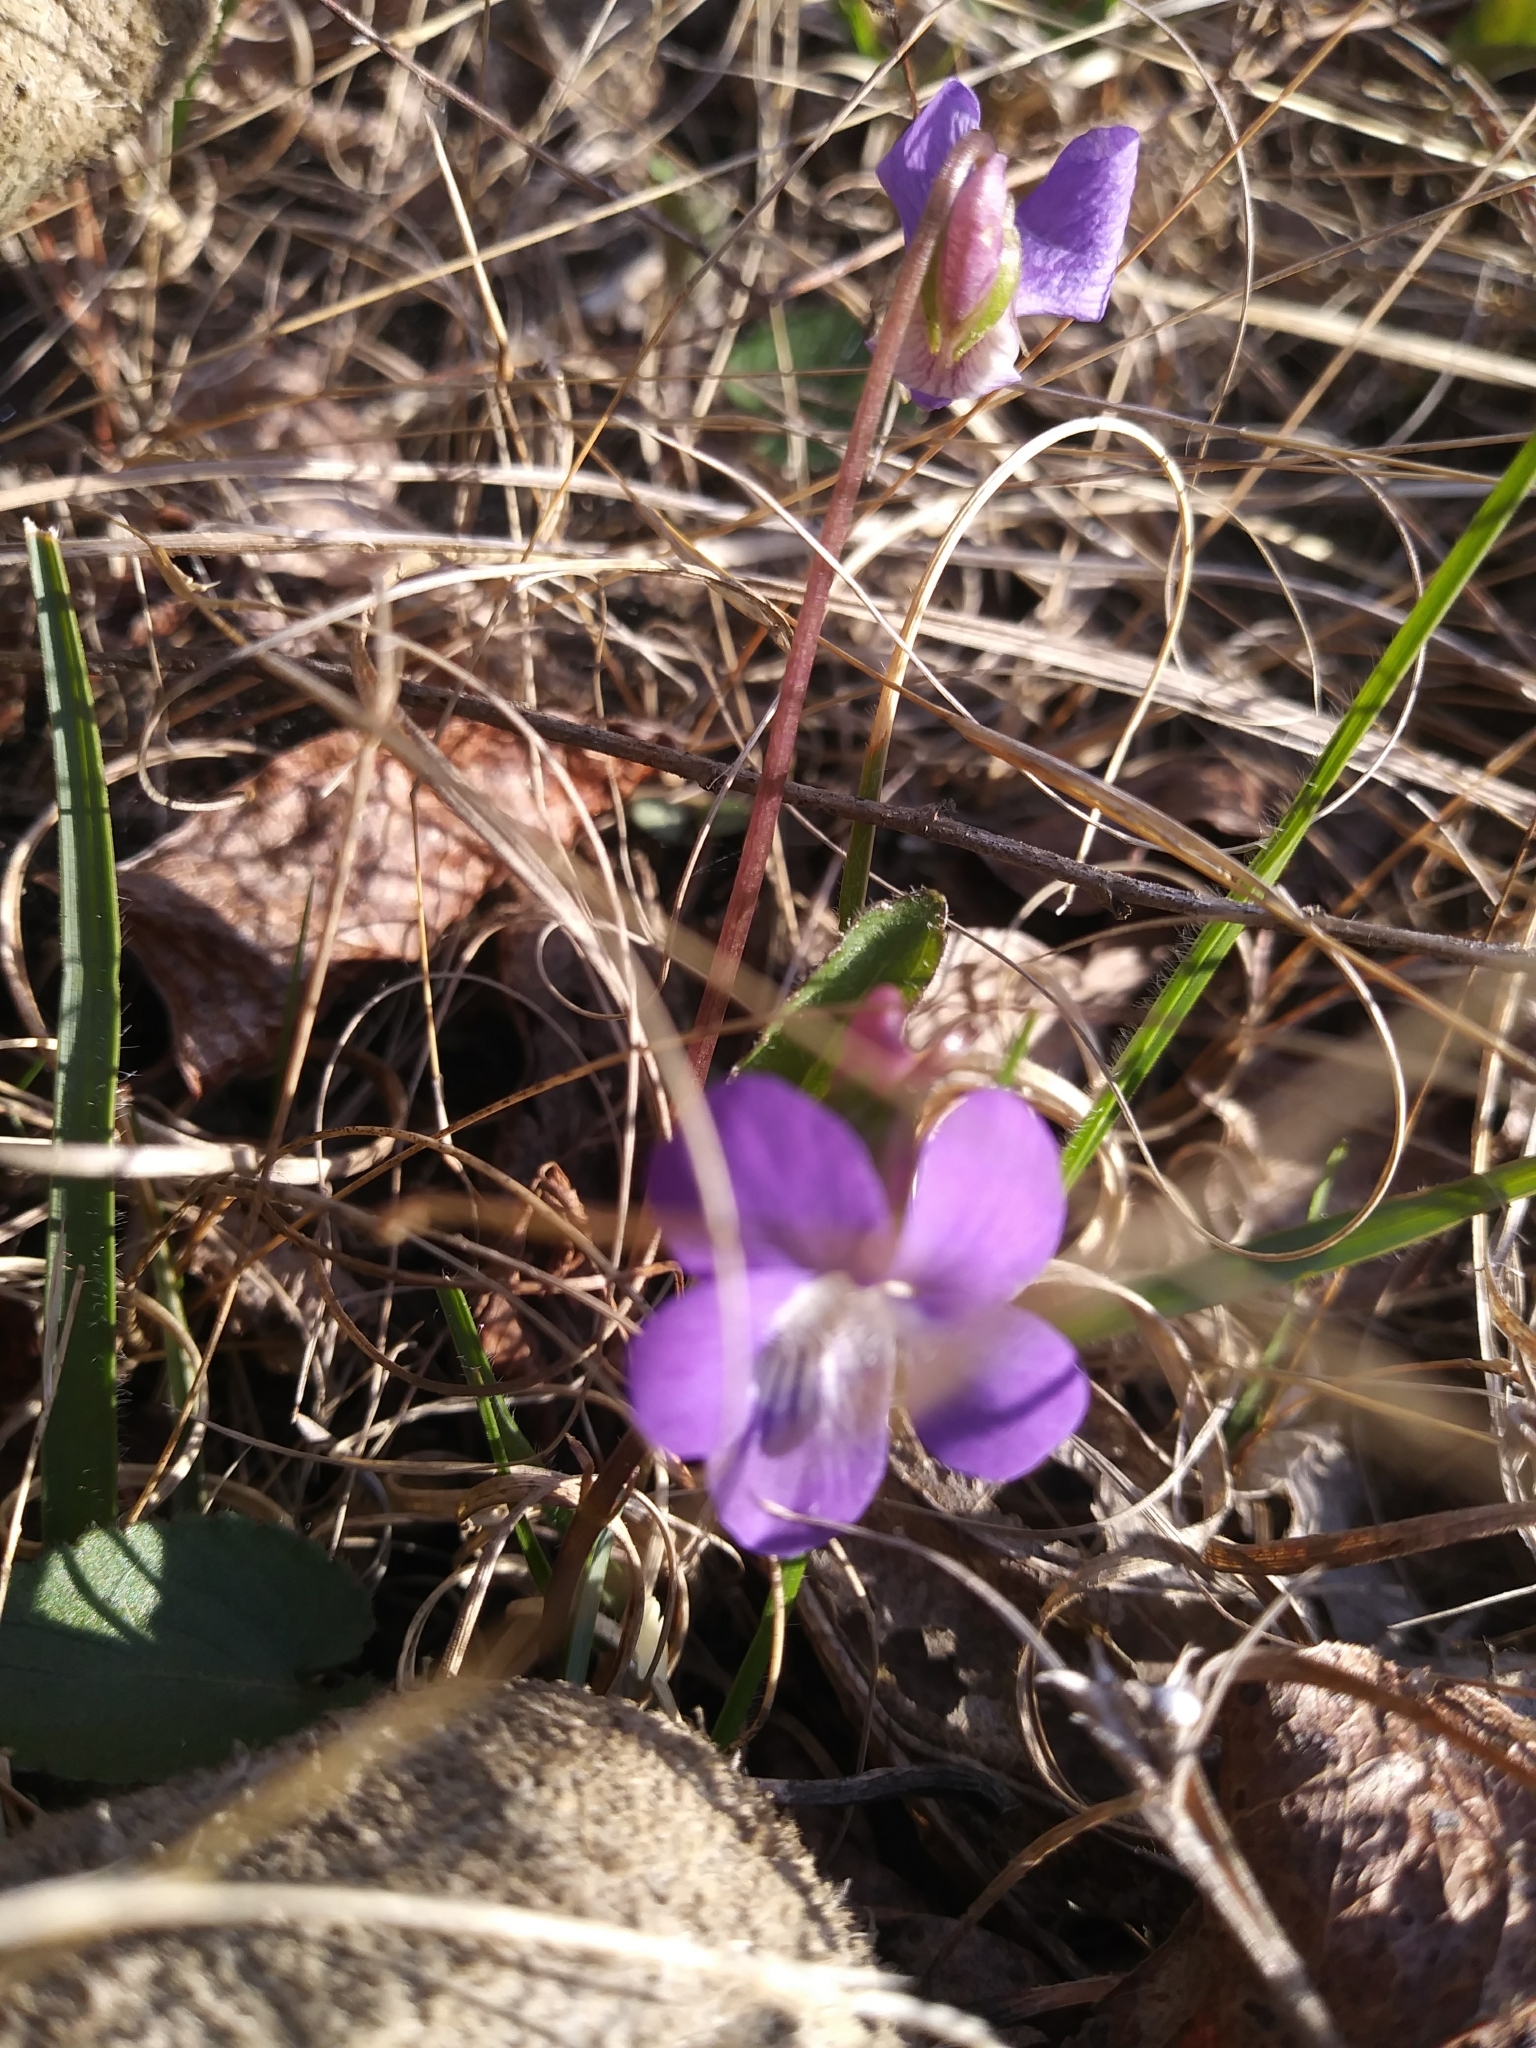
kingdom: Plantae
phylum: Tracheophyta
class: Magnoliopsida
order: Malpighiales
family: Violaceae
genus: Viola
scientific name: Viola sagittata
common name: Arrowhead violet
